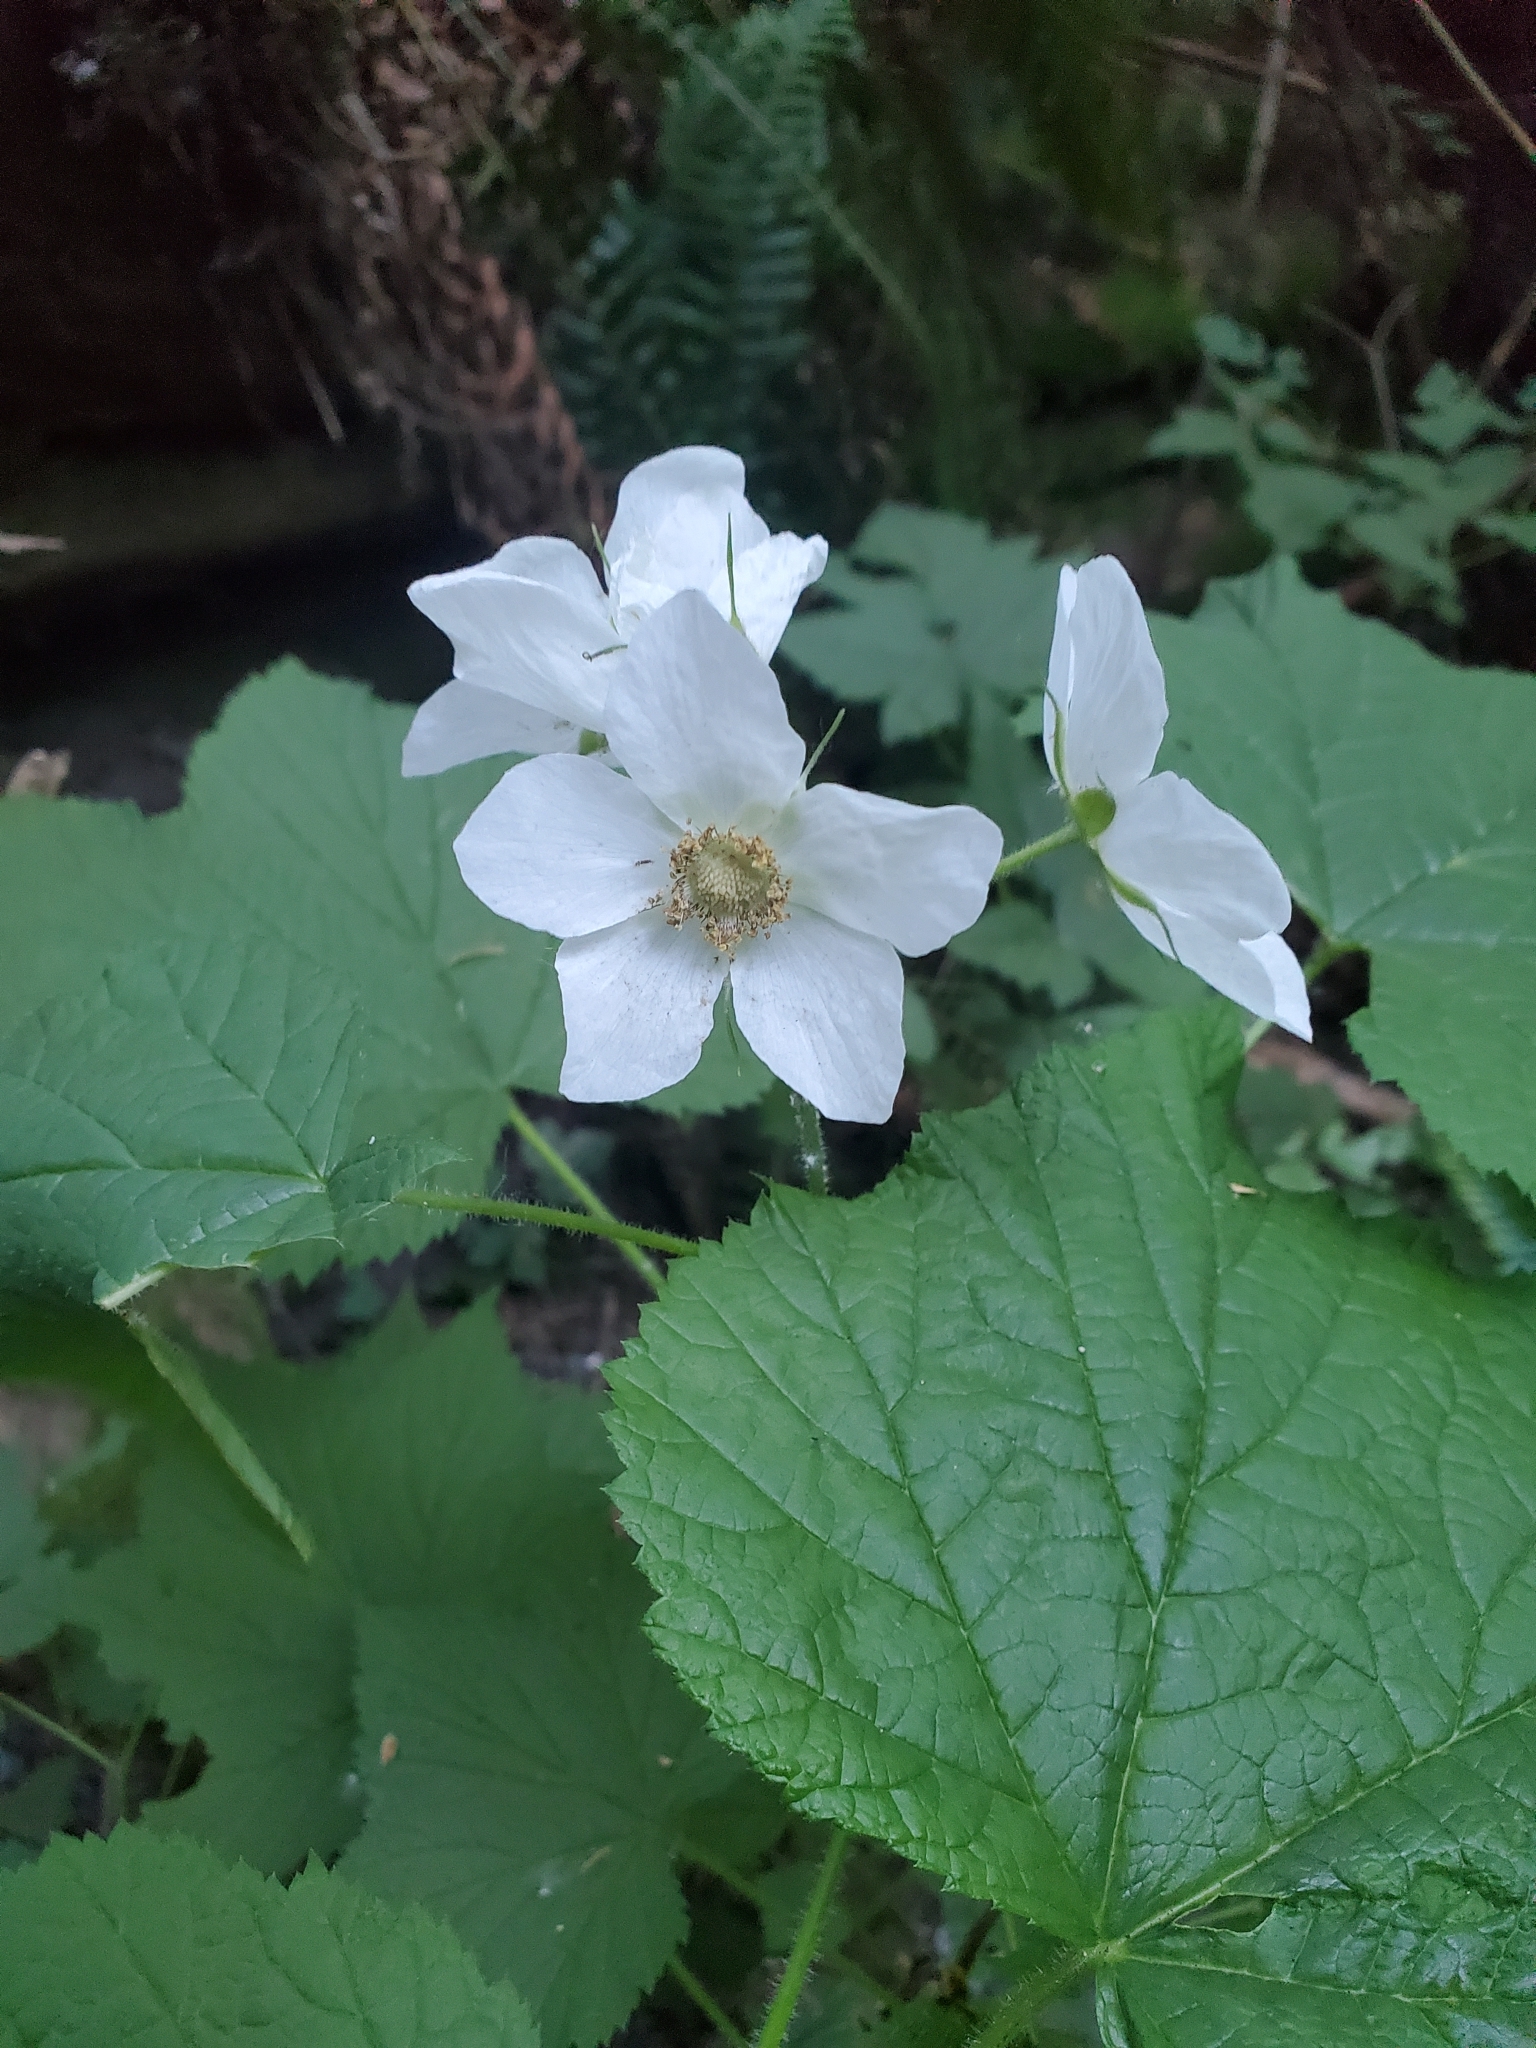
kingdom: Plantae
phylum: Tracheophyta
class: Magnoliopsida
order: Rosales
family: Rosaceae
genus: Rubus
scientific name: Rubus parviflorus
